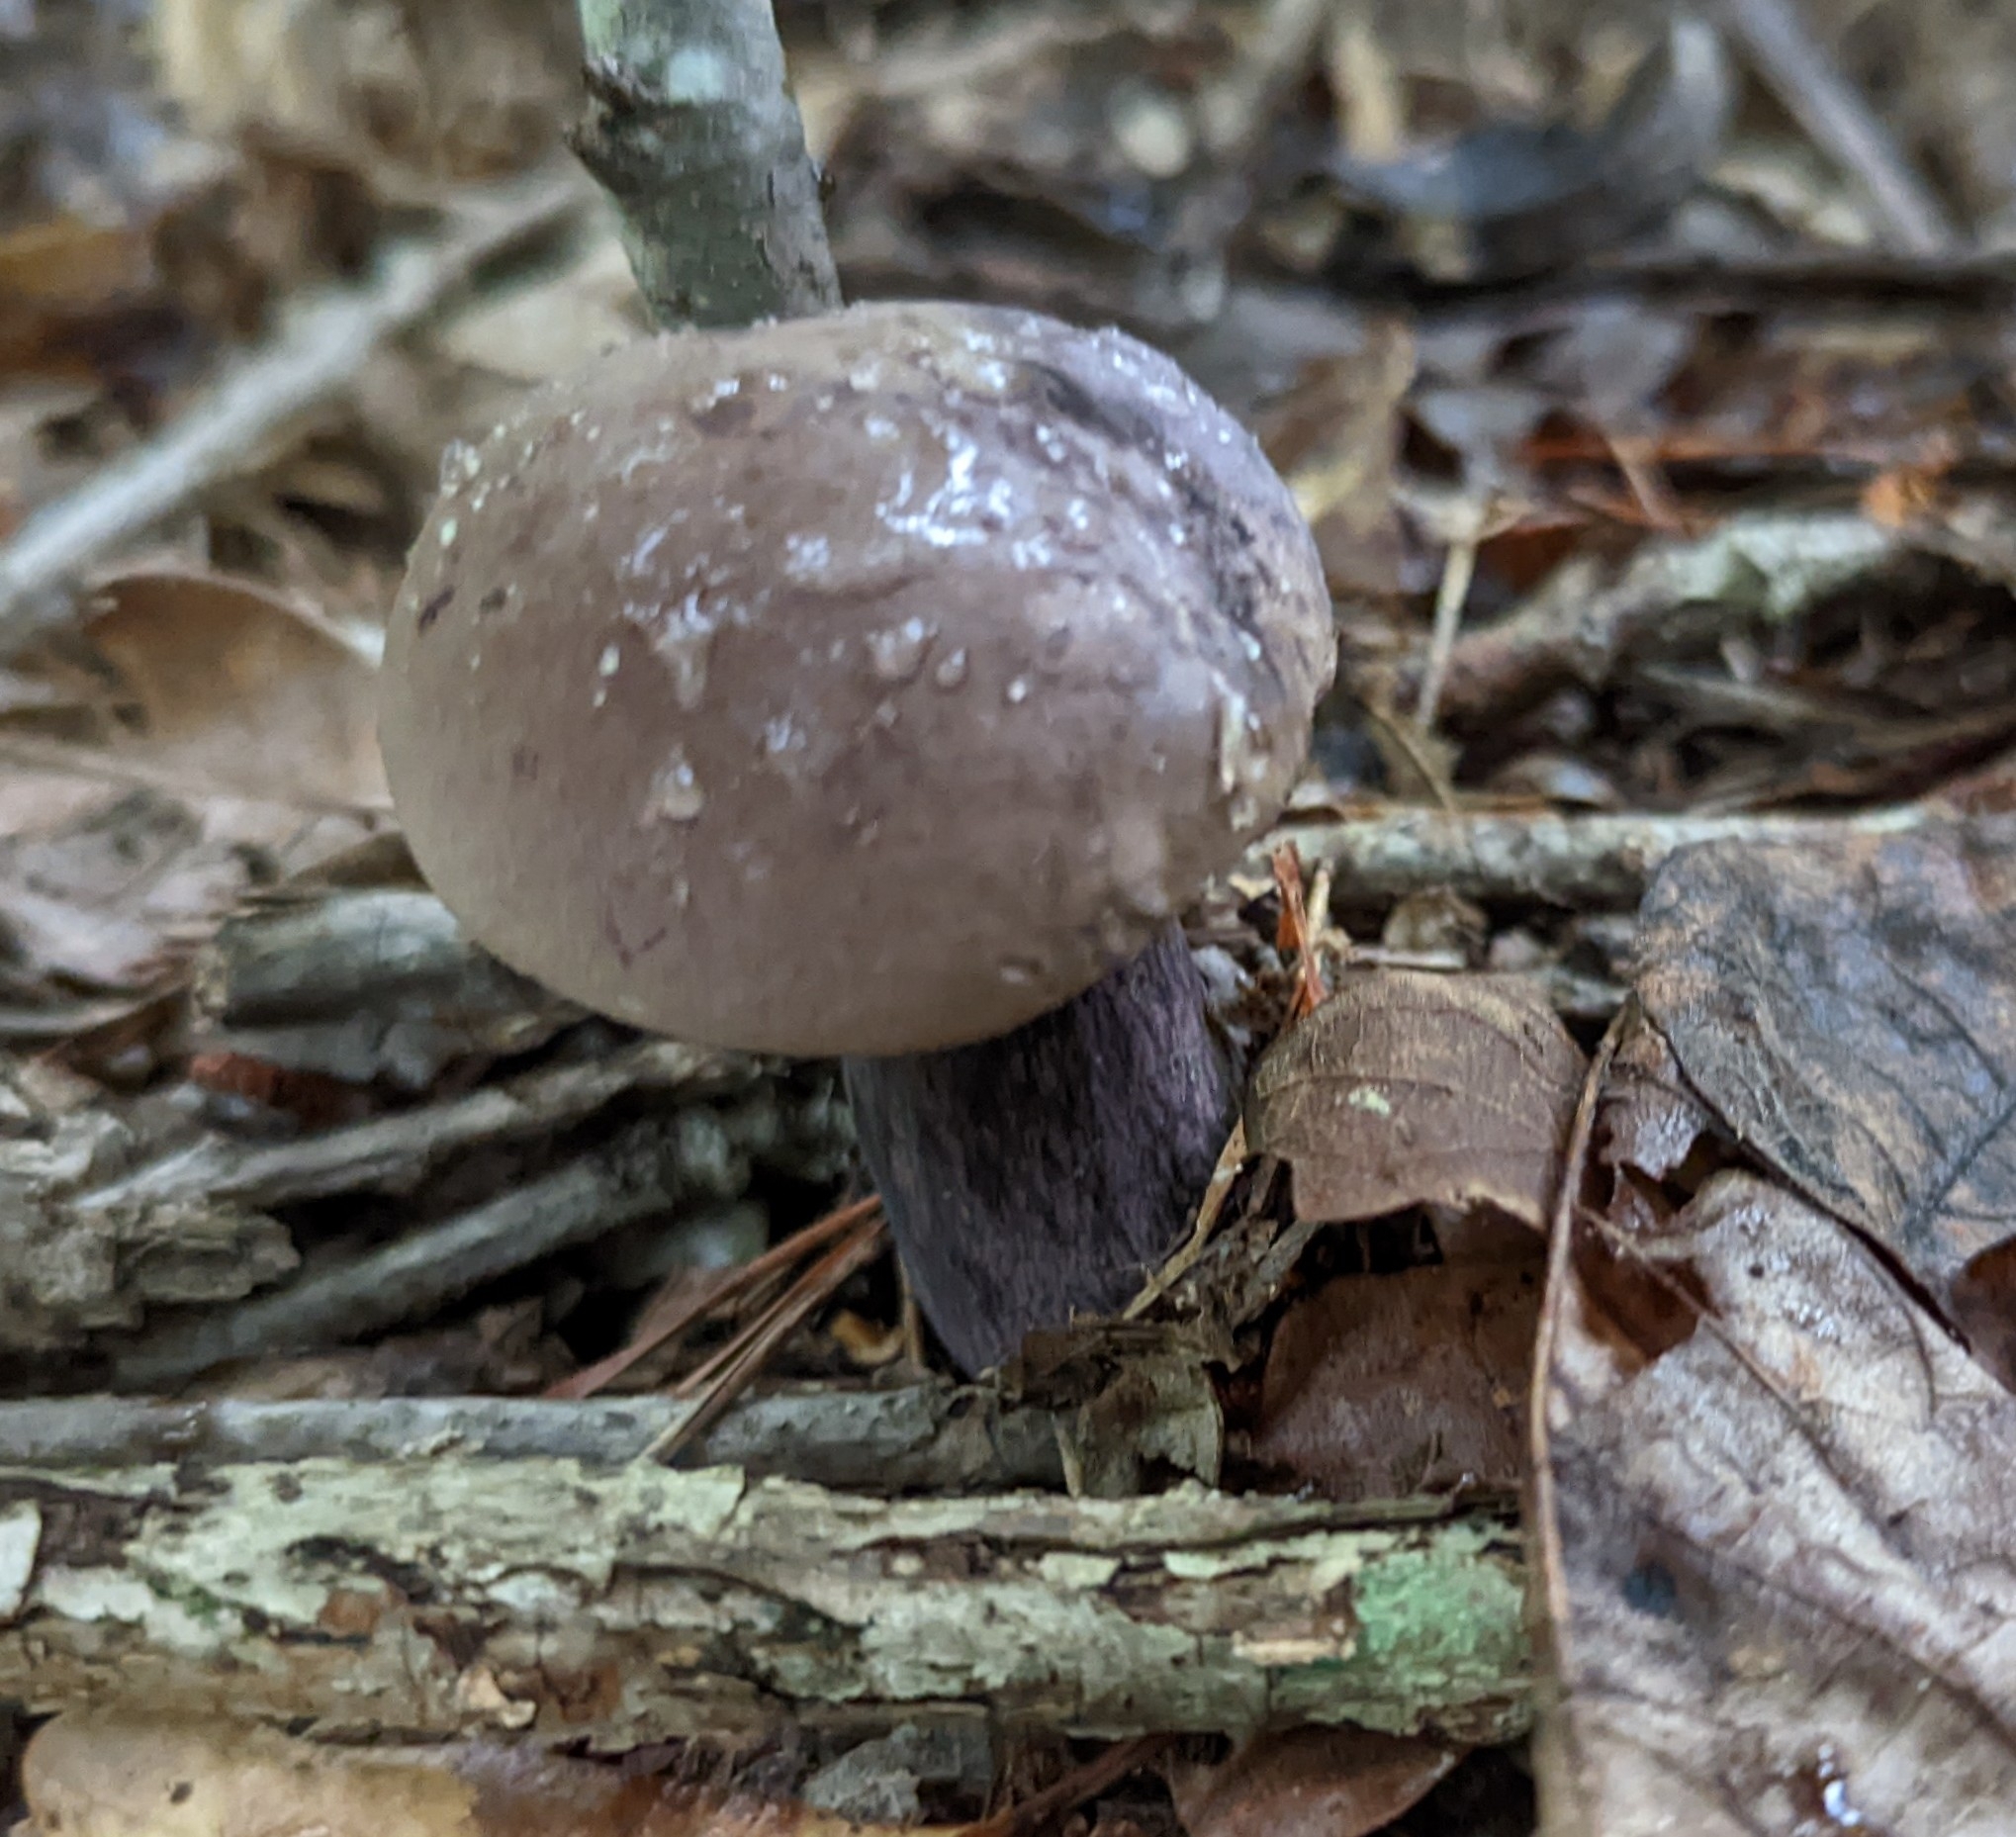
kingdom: Fungi
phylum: Basidiomycota
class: Agaricomycetes
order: Boletales
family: Boletaceae
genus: Tylopilus
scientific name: Tylopilus plumbeoviolaceus
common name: Violet gray bolete
